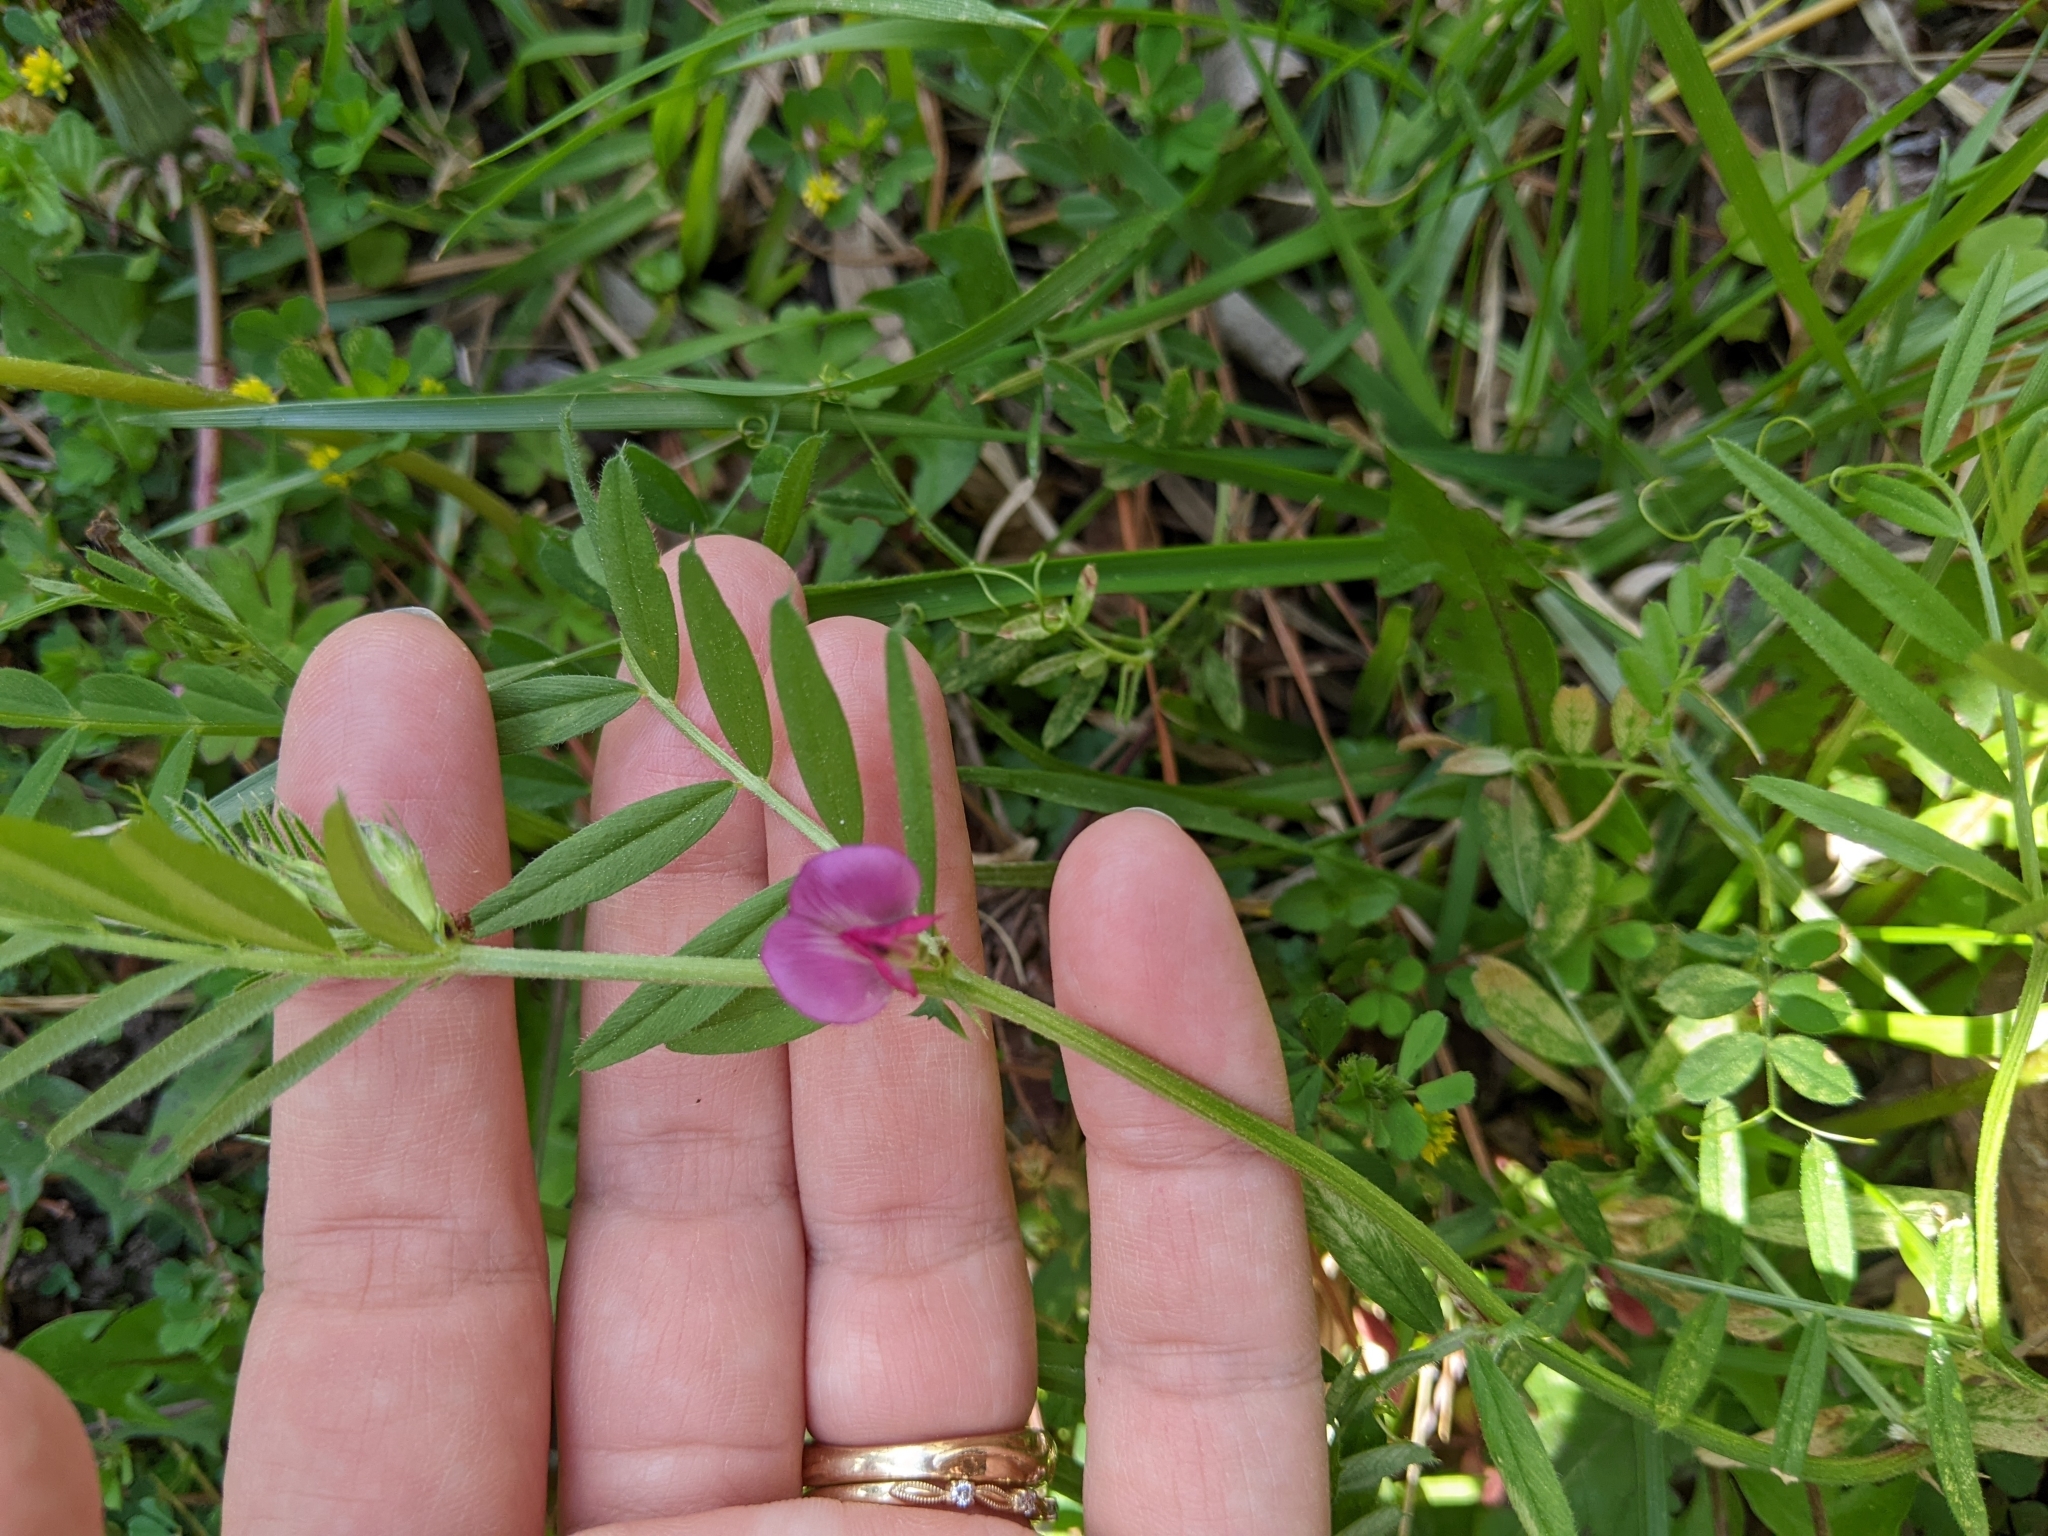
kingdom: Plantae
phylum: Tracheophyta
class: Magnoliopsida
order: Fabales
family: Fabaceae
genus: Vicia
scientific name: Vicia sativa
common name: Garden vetch
